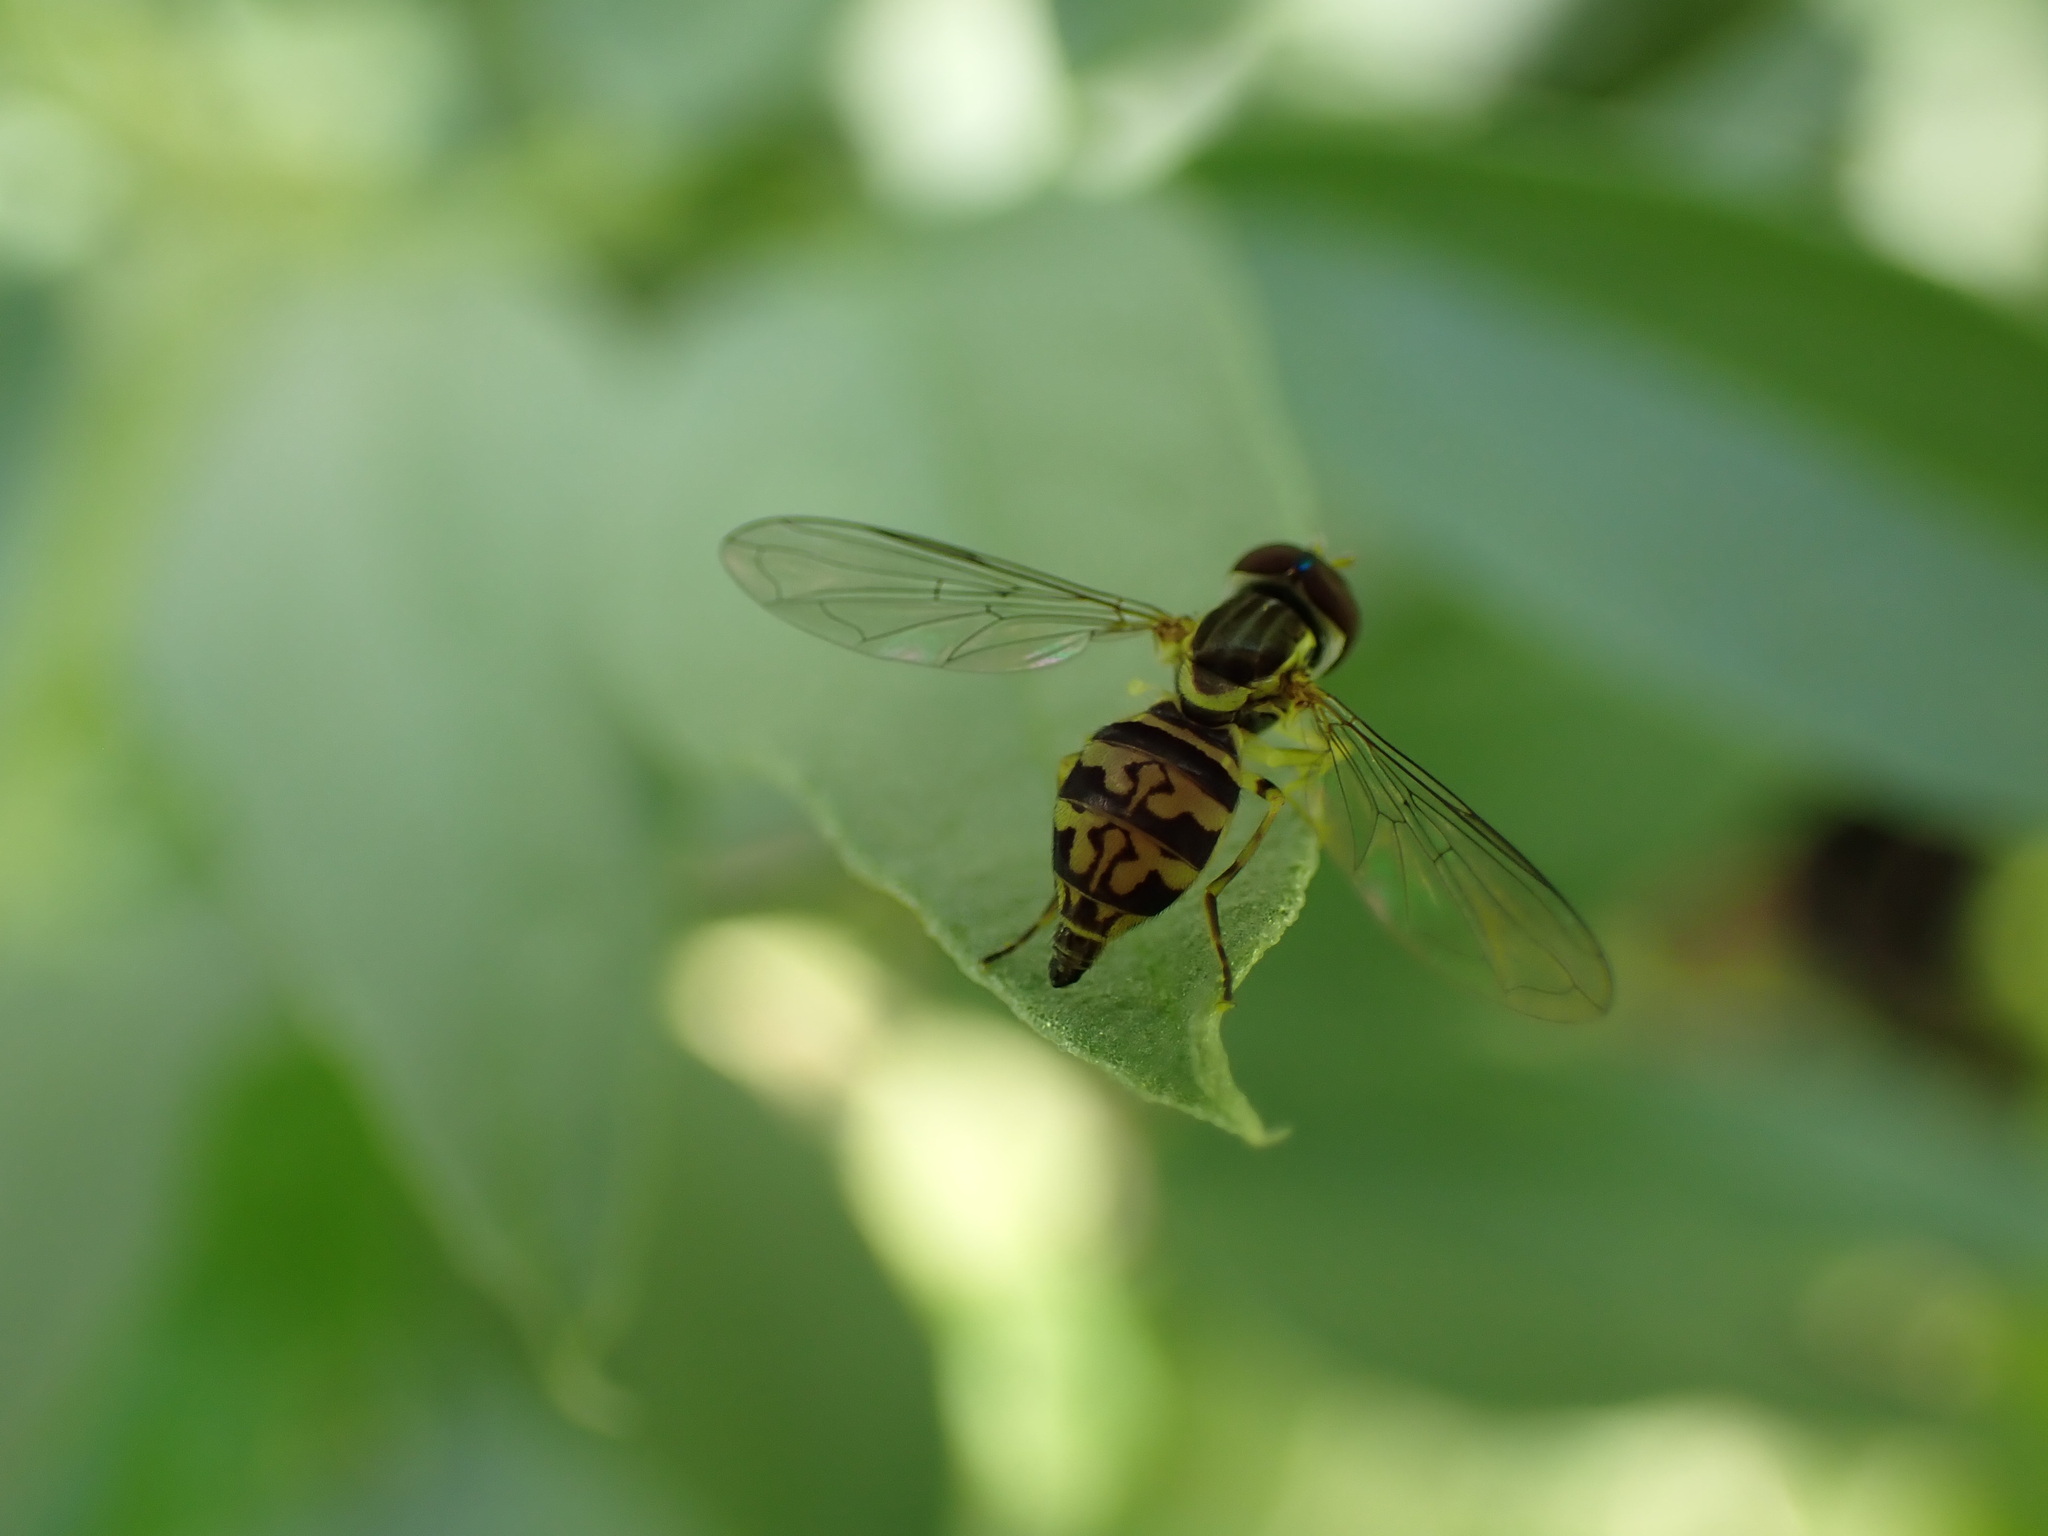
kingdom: Animalia
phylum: Arthropoda
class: Insecta
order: Diptera
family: Syrphidae
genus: Toxomerus
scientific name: Toxomerus geminatus
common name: Eastern calligrapher
